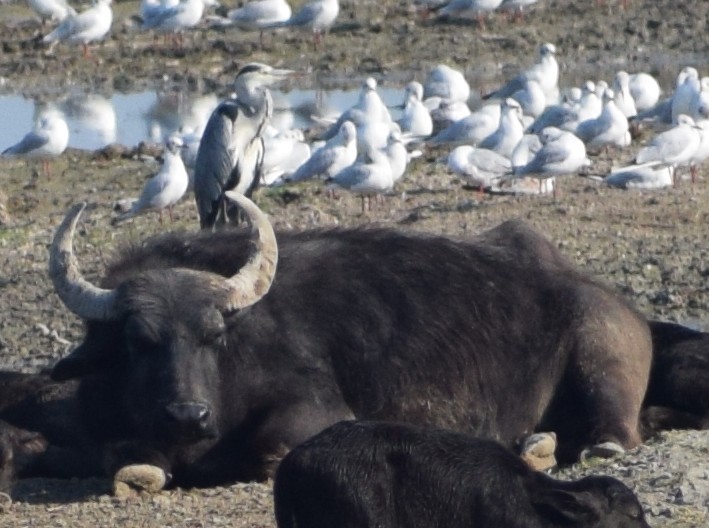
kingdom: Animalia
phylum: Chordata
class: Mammalia
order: Artiodactyla
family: Bovidae
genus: Bubalus
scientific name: Bubalus bubalis
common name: Water buffalo
